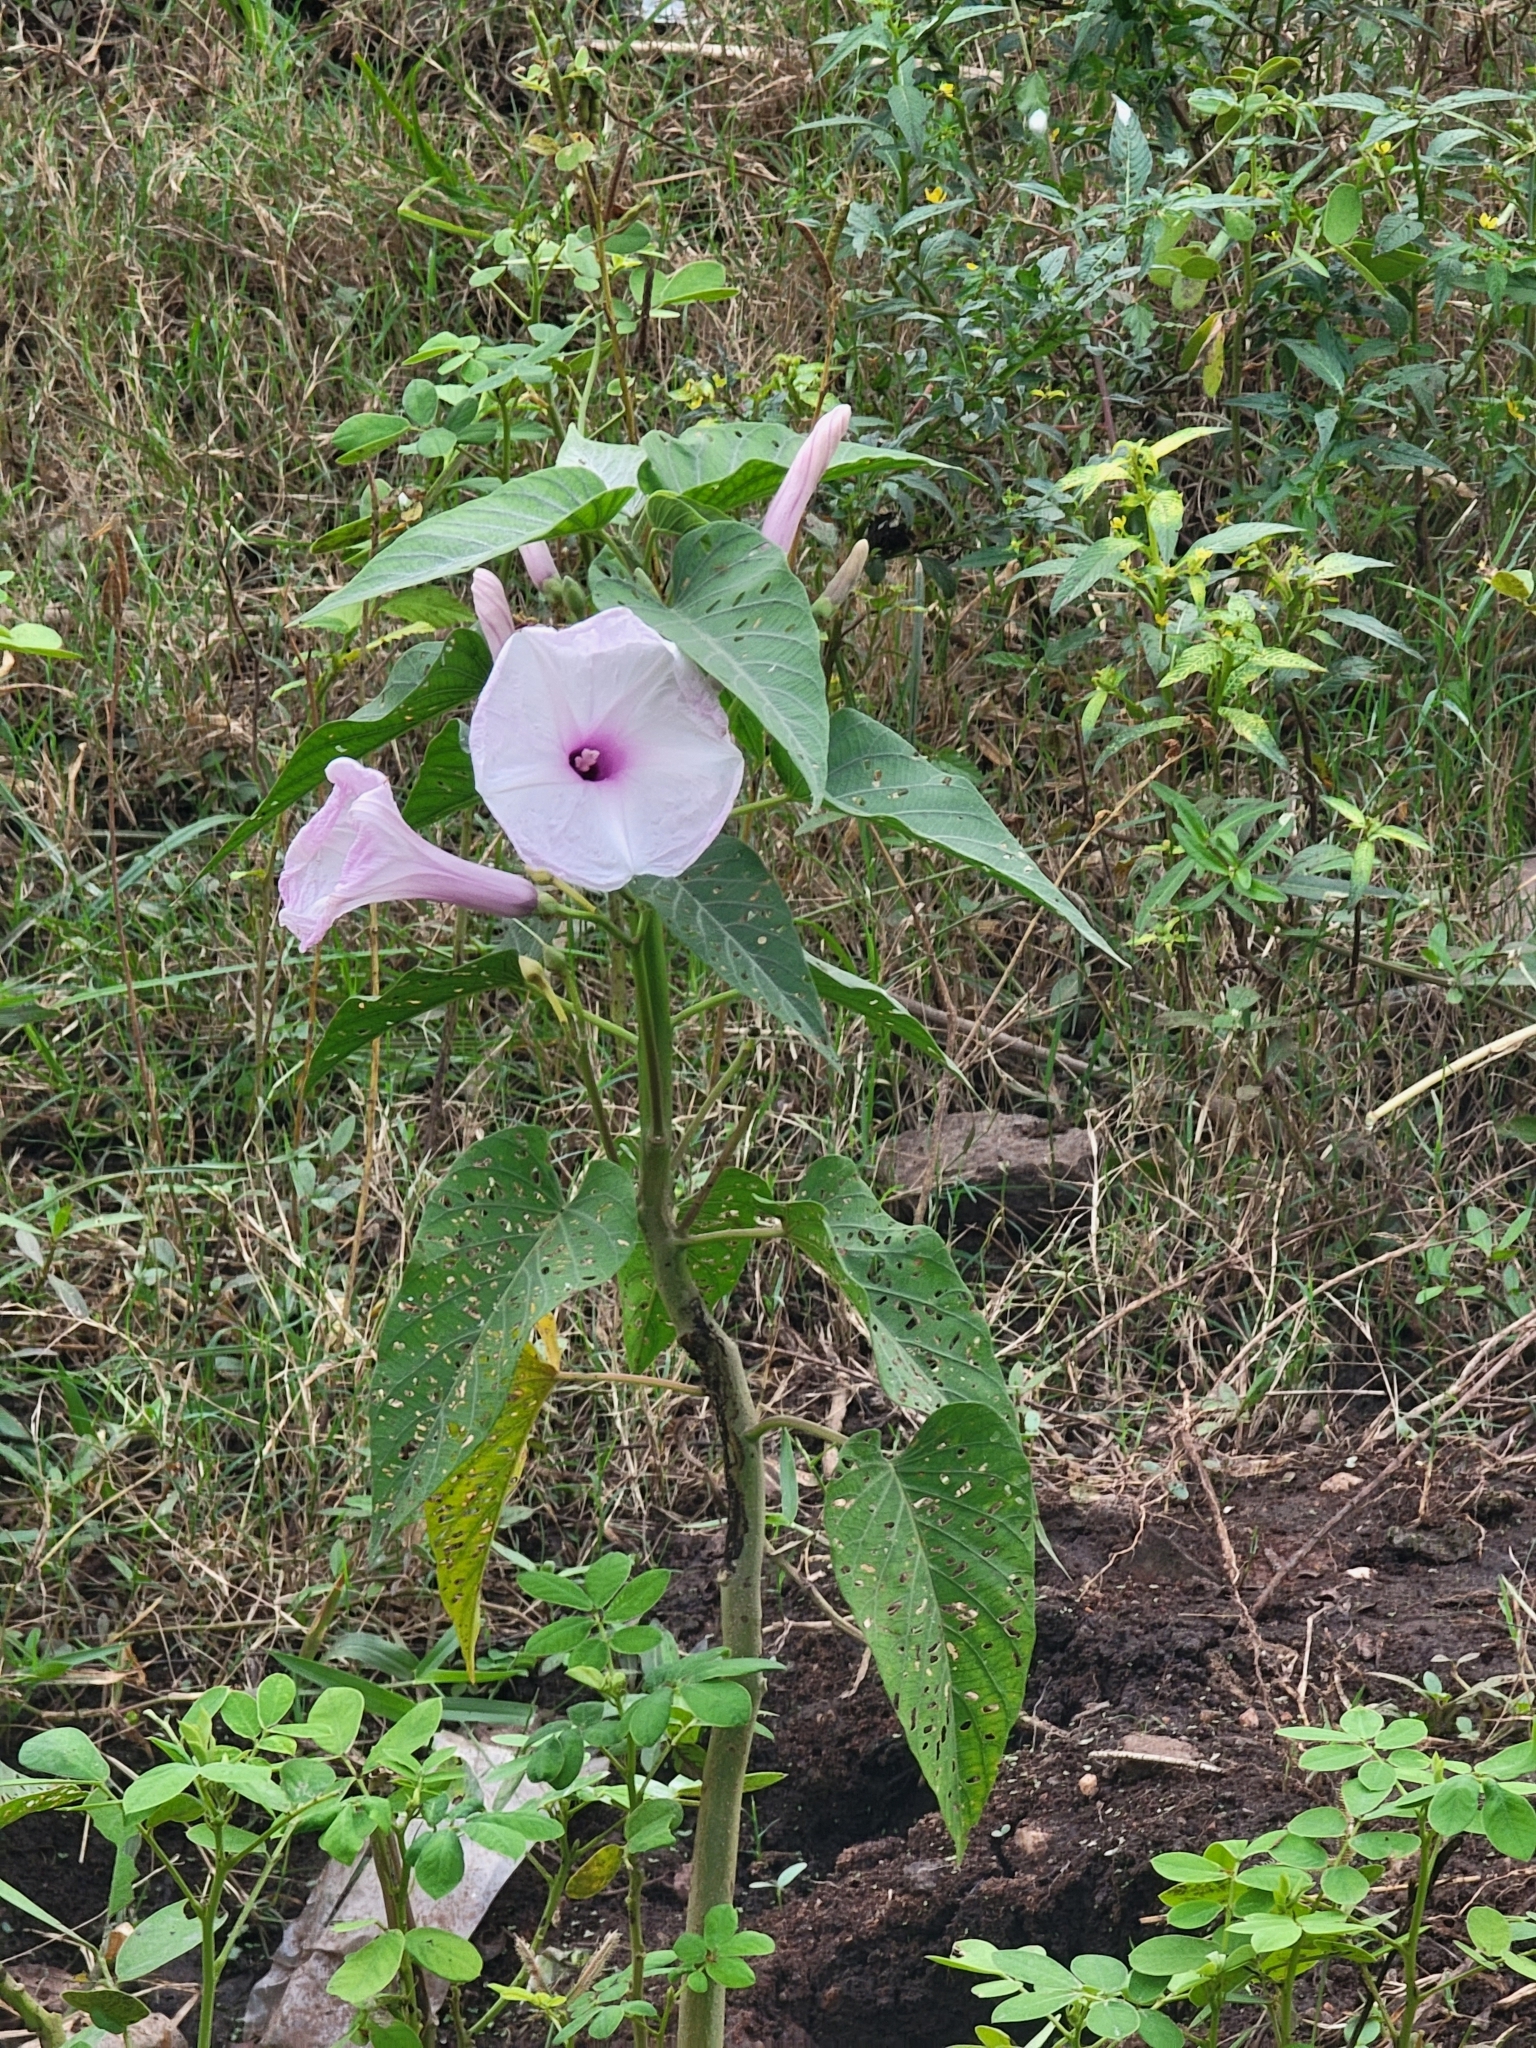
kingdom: Plantae
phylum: Tracheophyta
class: Magnoliopsida
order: Solanales
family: Convolvulaceae
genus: Ipomoea
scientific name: Ipomoea carnea
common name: Morning-glory
